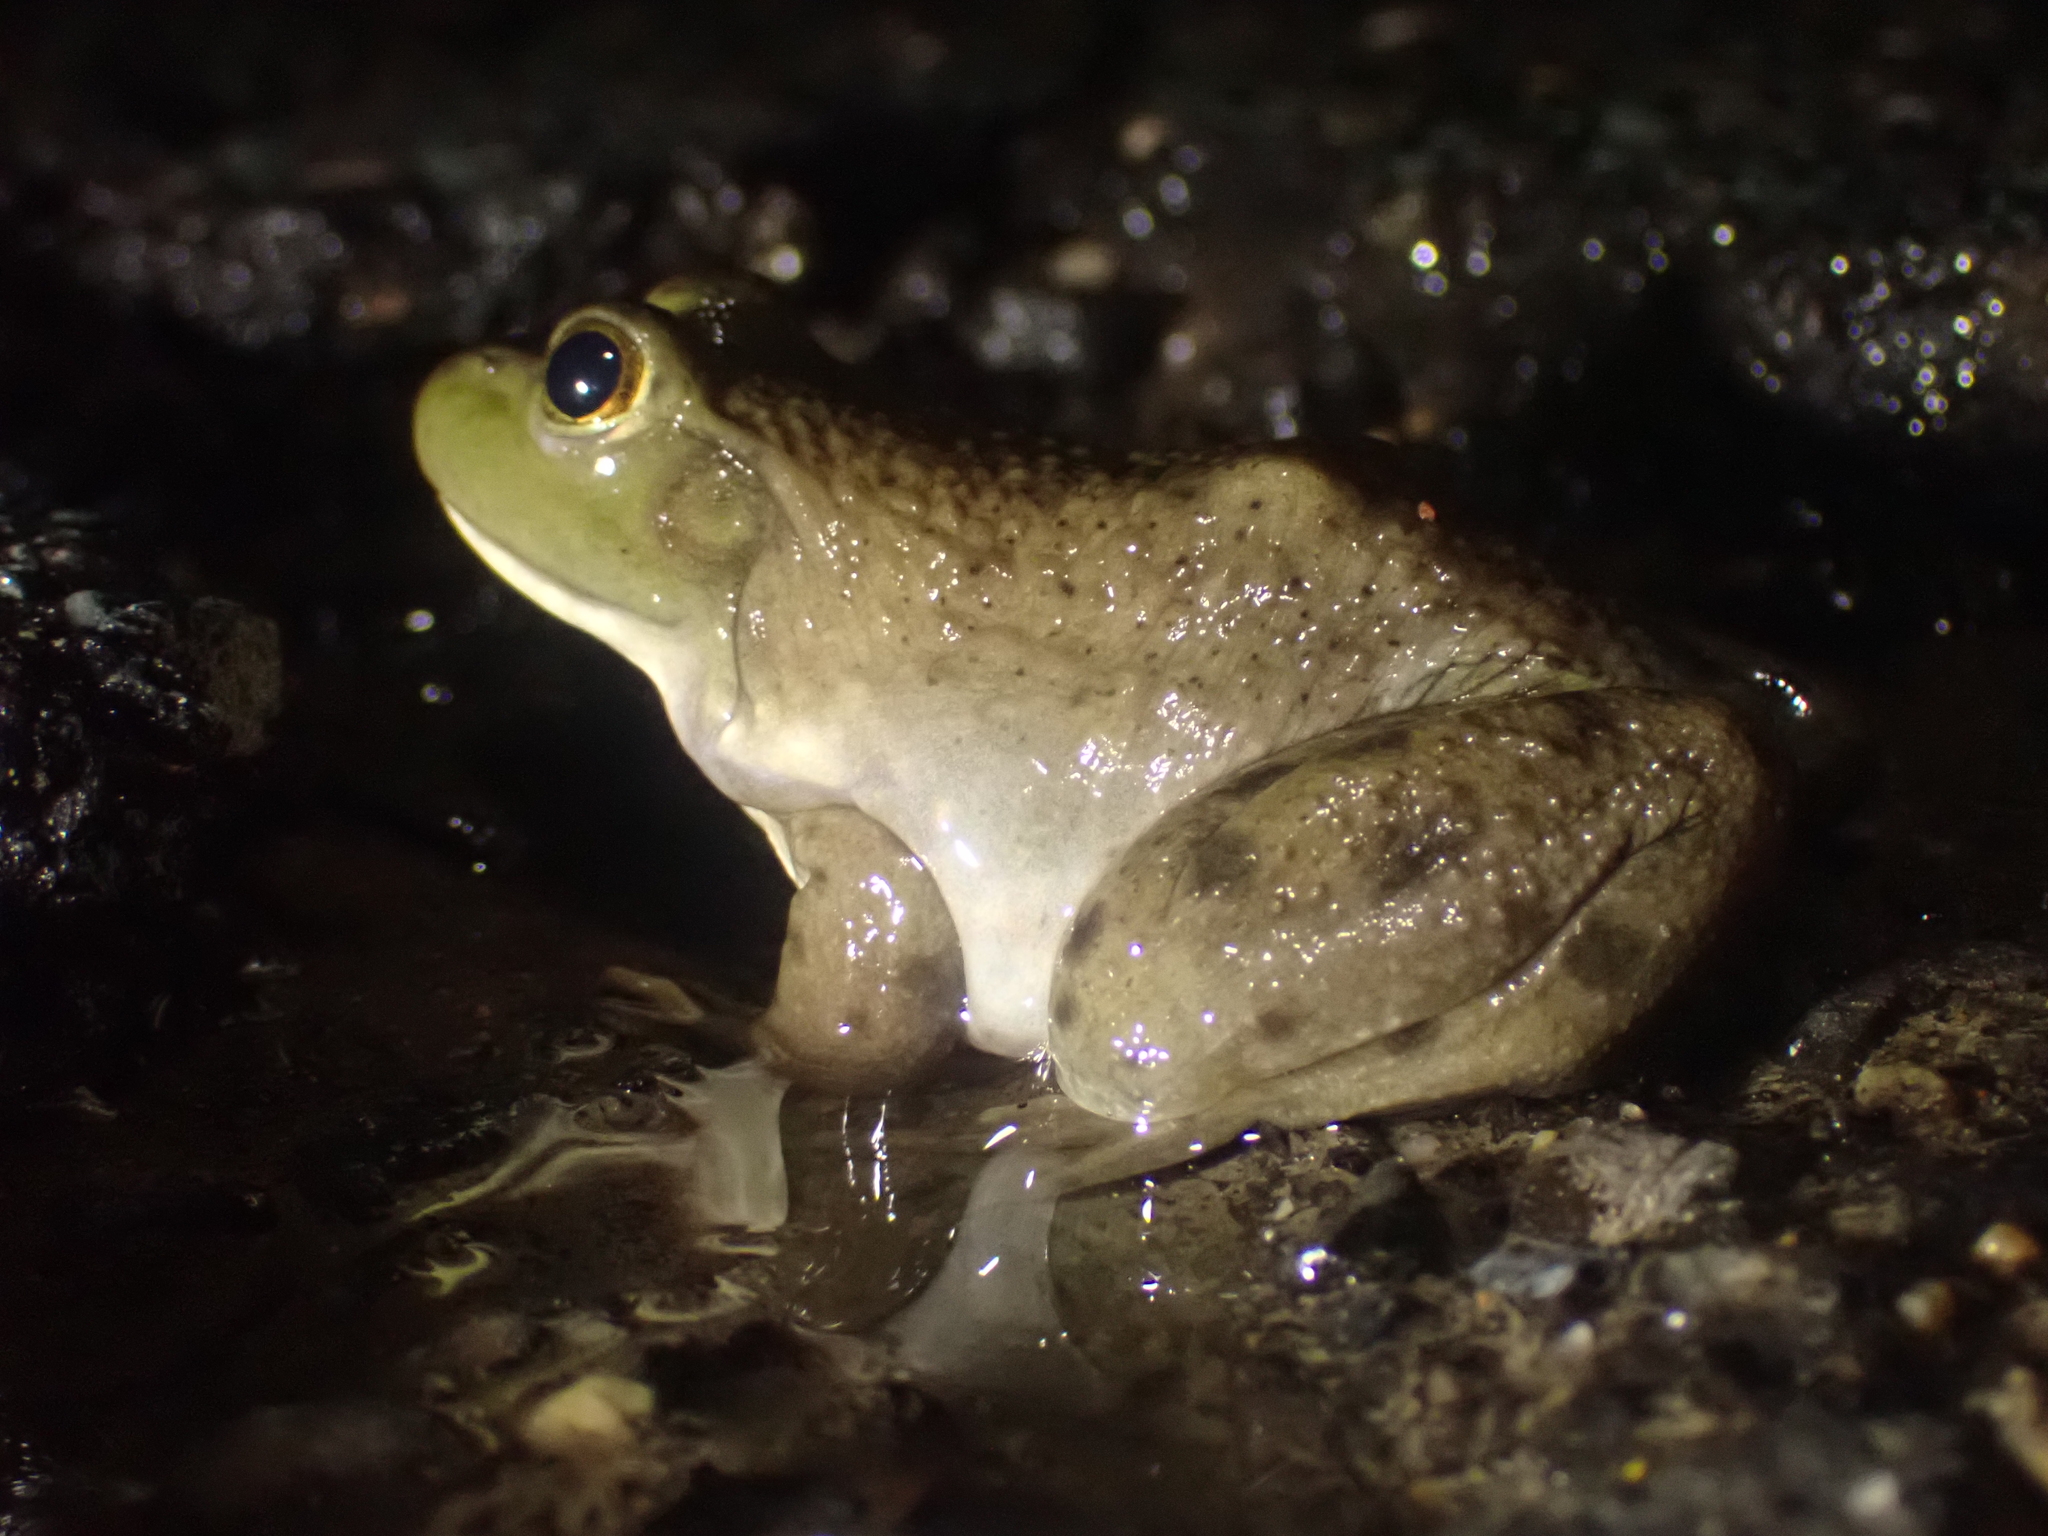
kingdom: Animalia
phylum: Chordata
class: Amphibia
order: Anura
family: Ranidae
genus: Lithobates
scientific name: Lithobates catesbeianus
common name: American bullfrog
